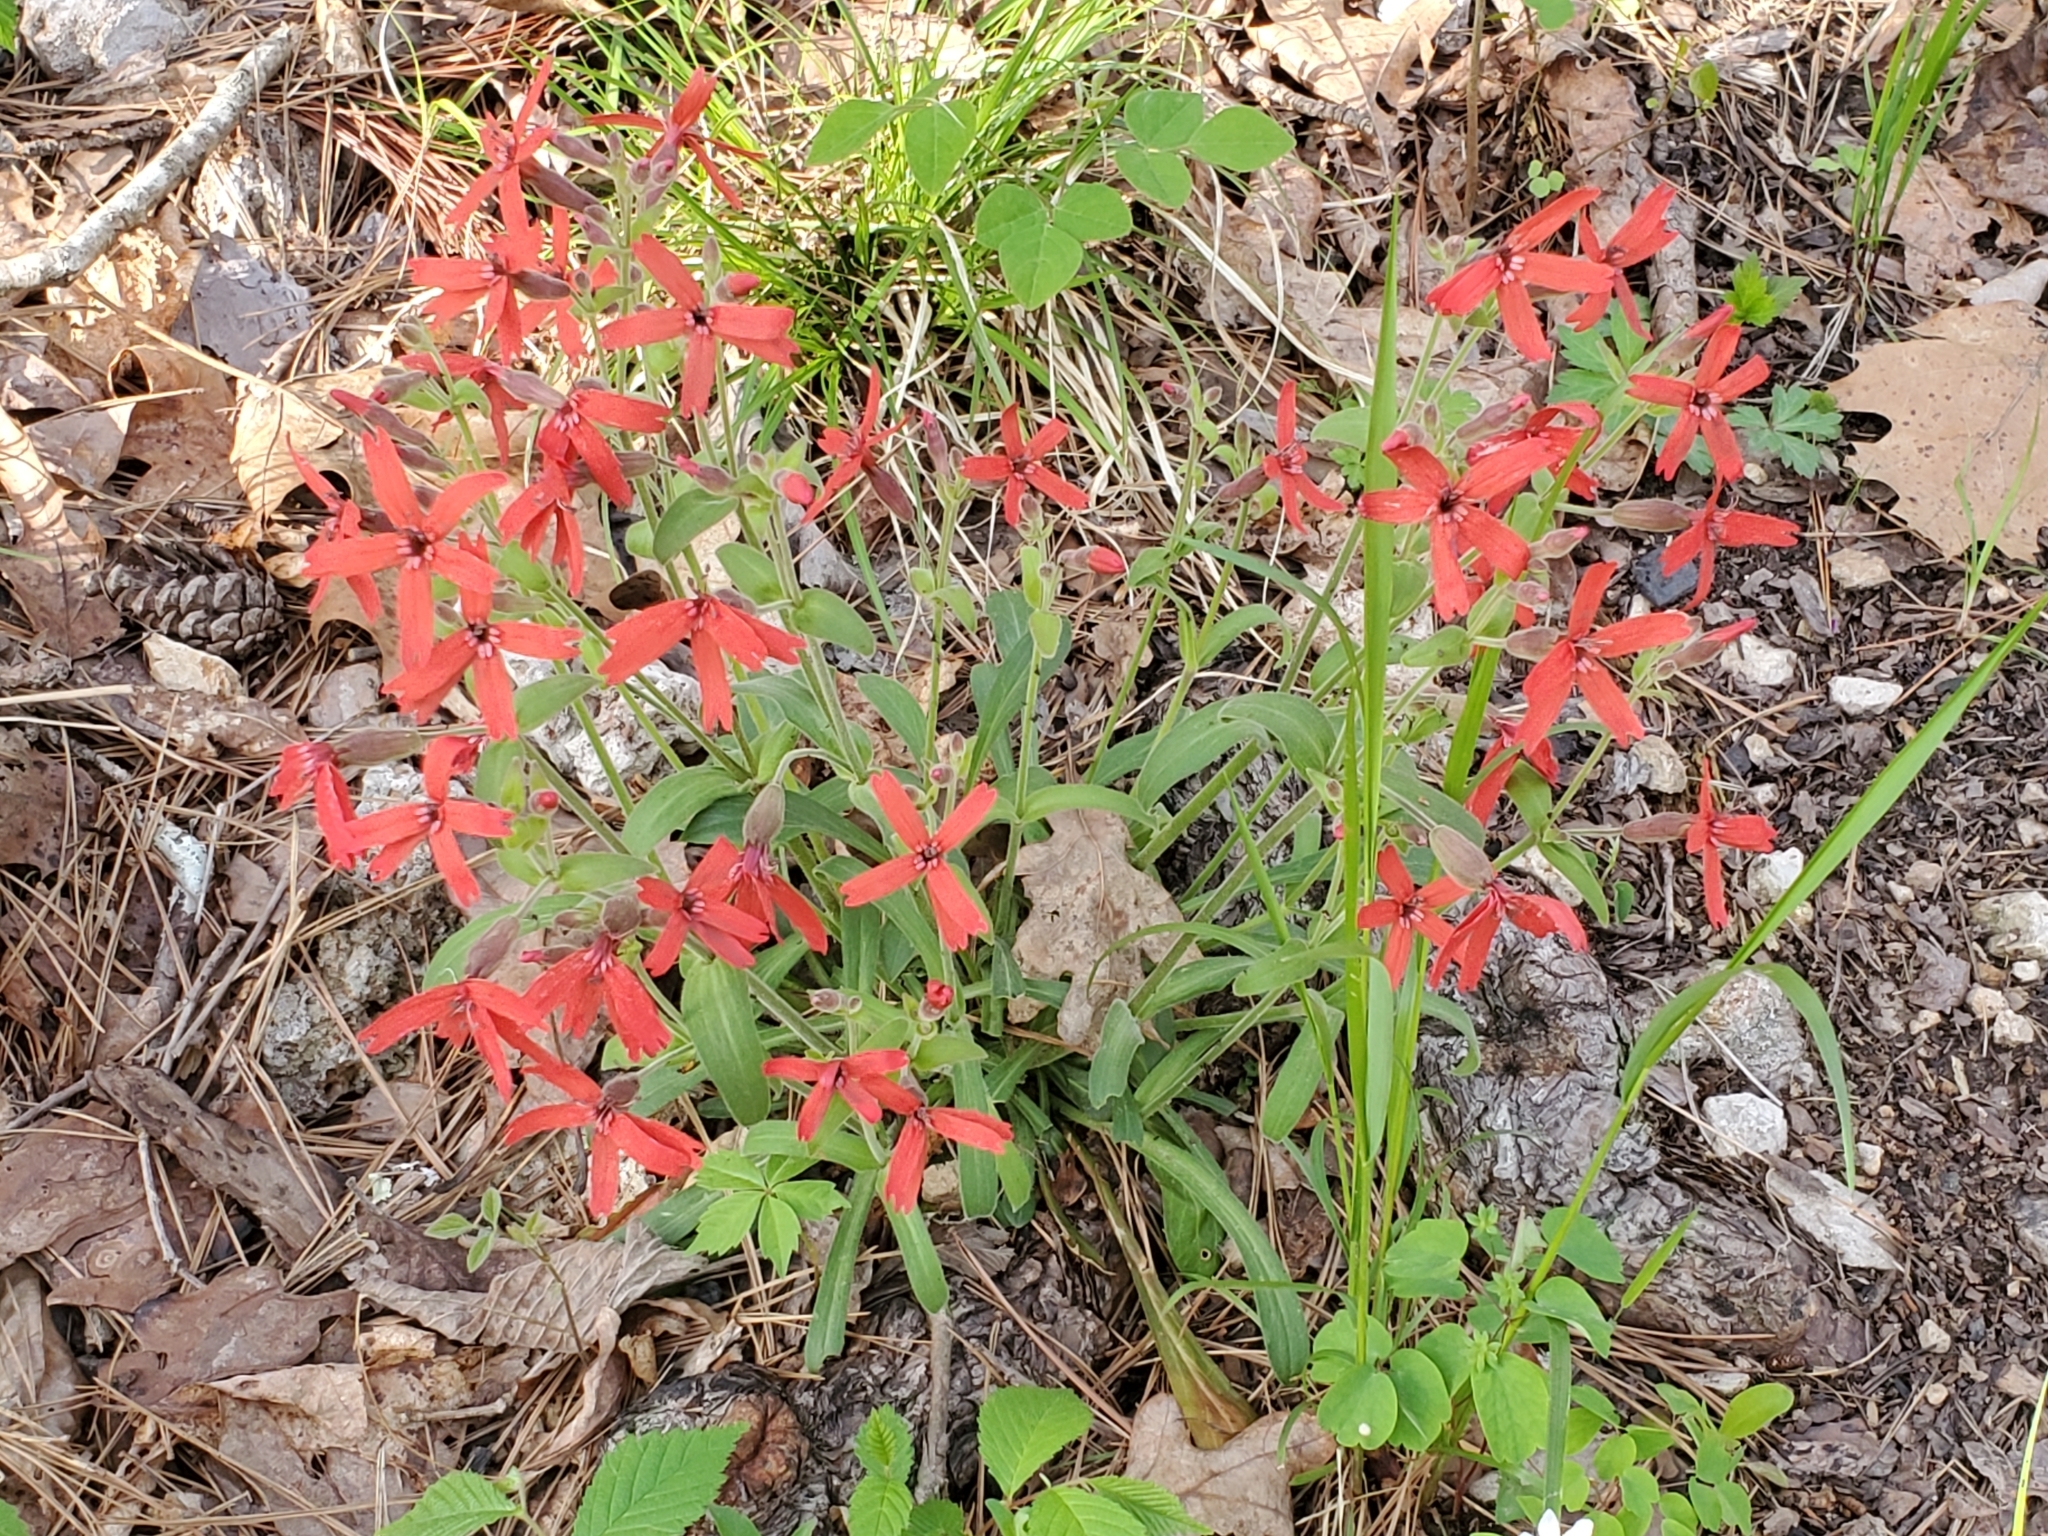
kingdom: Plantae
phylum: Tracheophyta
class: Magnoliopsida
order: Caryophyllales
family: Caryophyllaceae
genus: Silene
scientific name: Silene virginica
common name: Fire-pink
